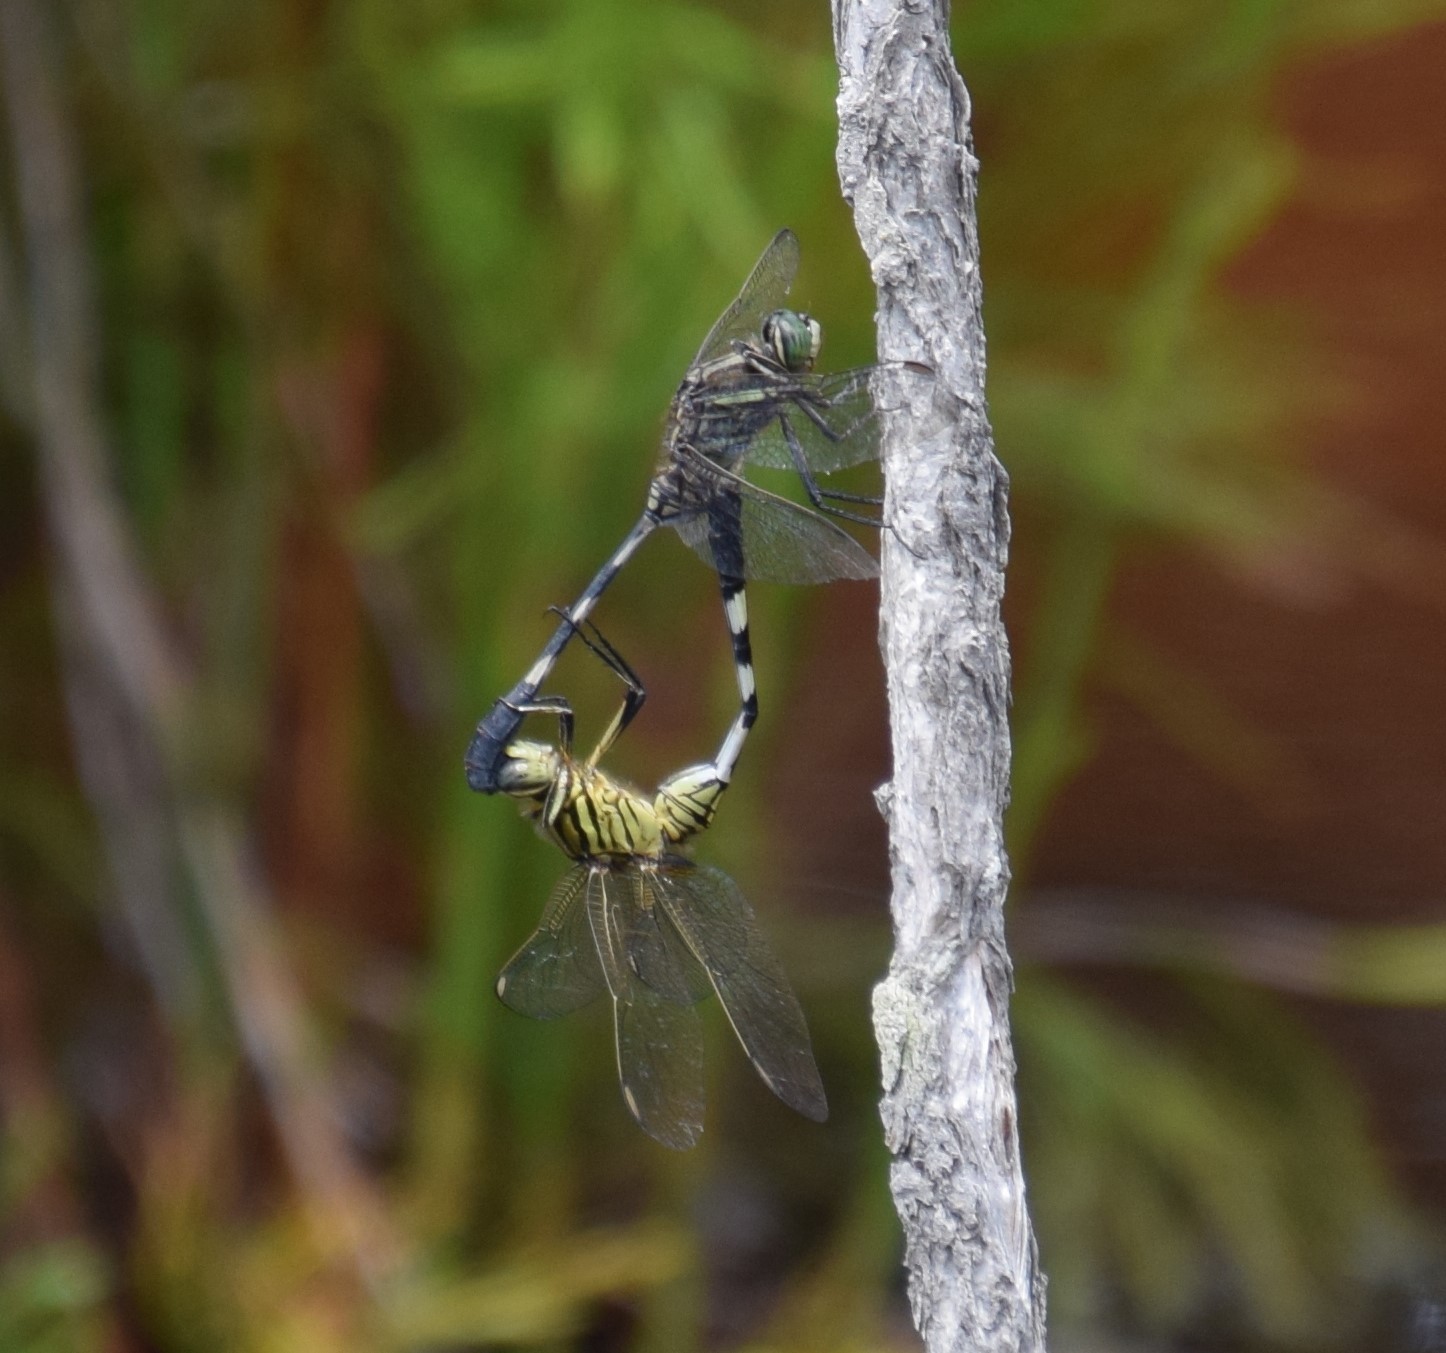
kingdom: Animalia
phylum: Arthropoda
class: Insecta
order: Odonata
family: Libellulidae
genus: Orthetrum
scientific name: Orthetrum sabina
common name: Slender skimmer
